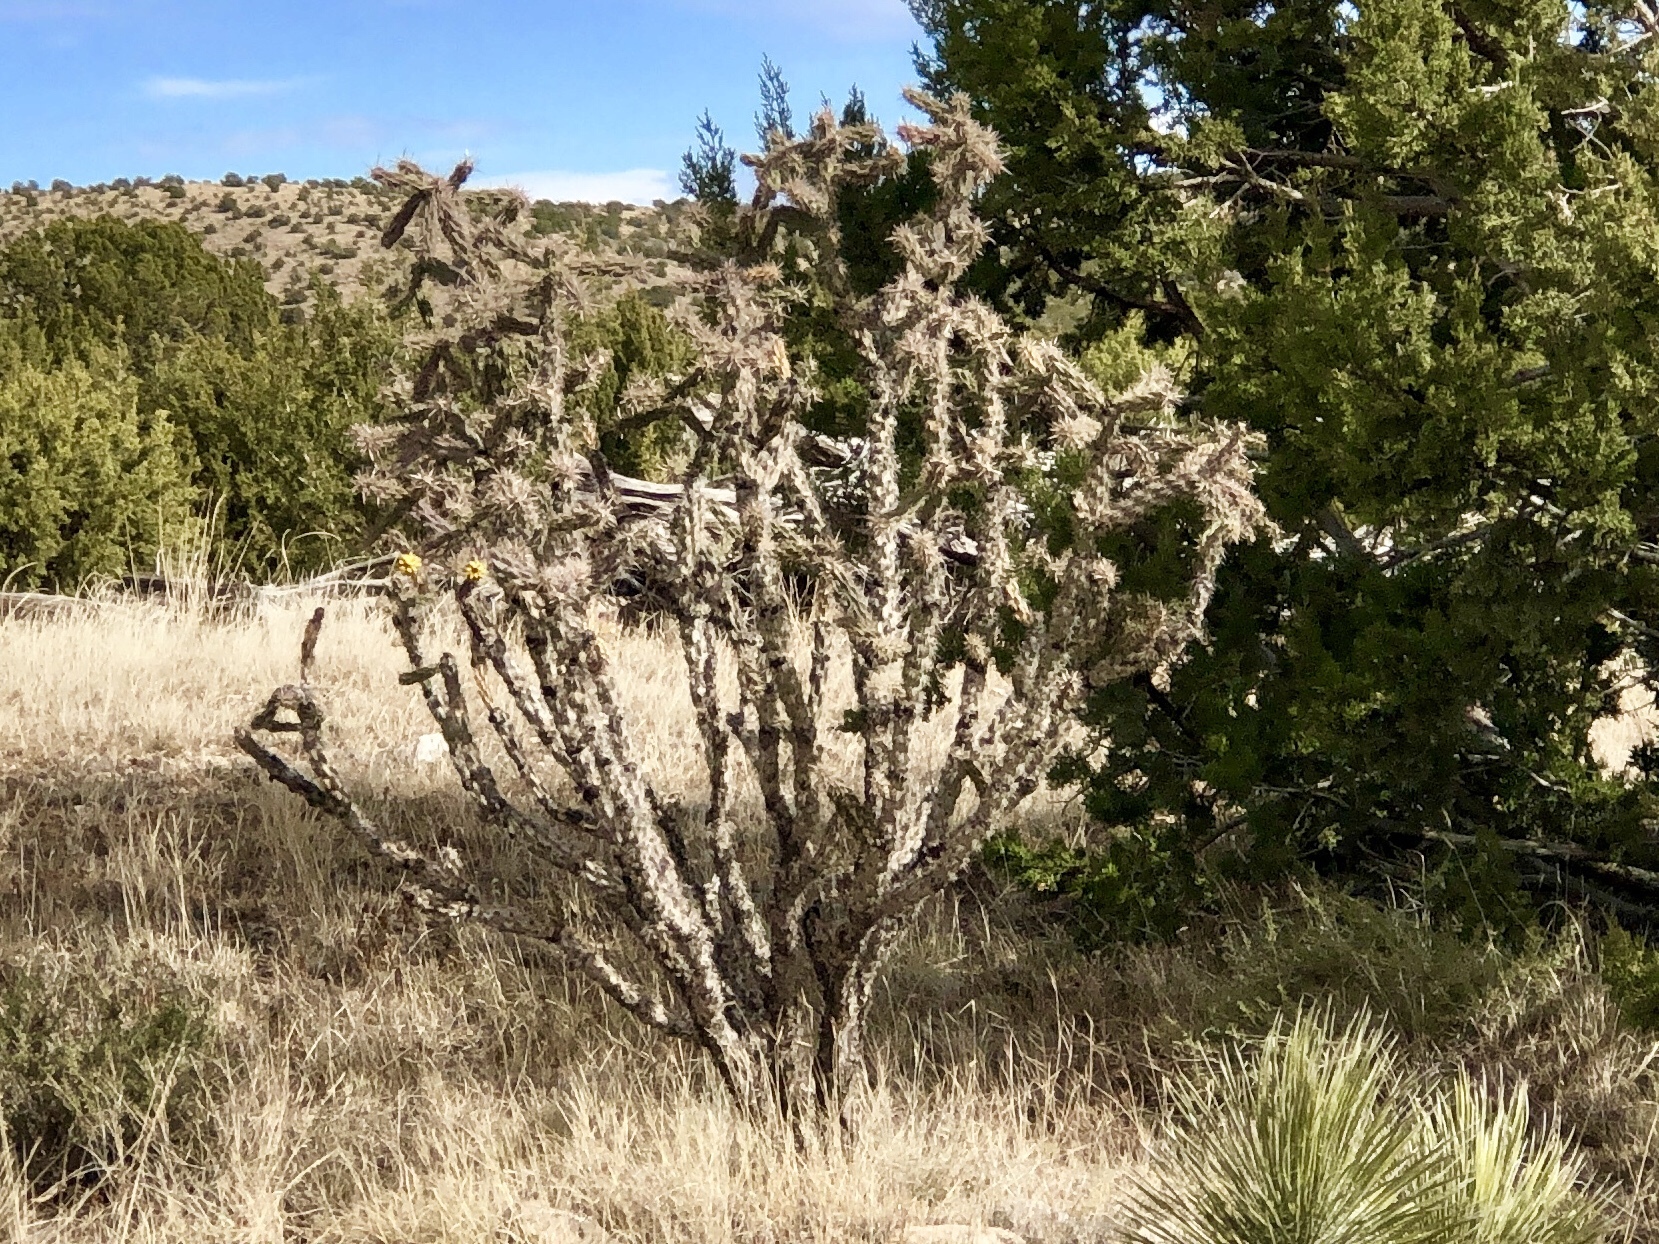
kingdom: Plantae
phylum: Tracheophyta
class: Magnoliopsida
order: Caryophyllales
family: Cactaceae
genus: Cylindropuntia
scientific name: Cylindropuntia imbricata
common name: Candelabrum cactus
